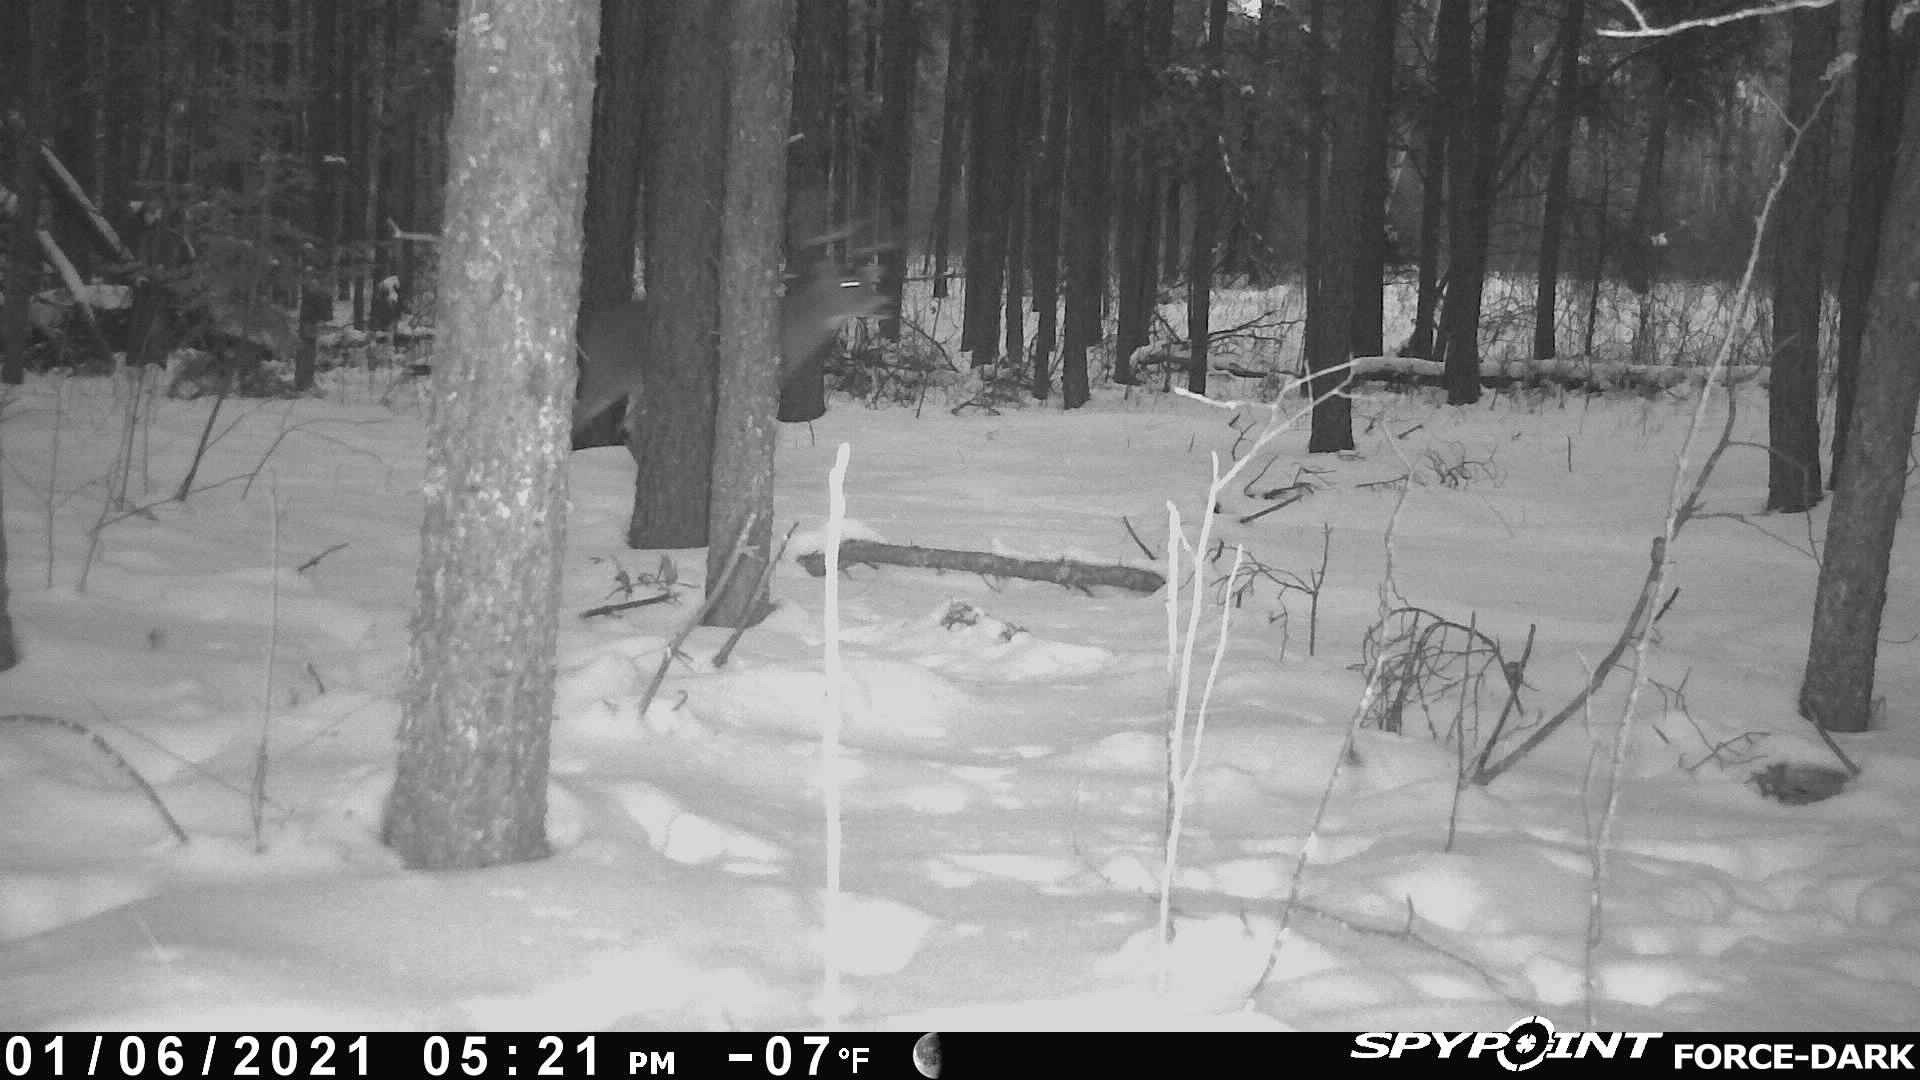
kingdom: Animalia
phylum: Chordata
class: Mammalia
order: Artiodactyla
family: Cervidae
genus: Odocoileus
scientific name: Odocoileus virginianus
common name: White-tailed deer
